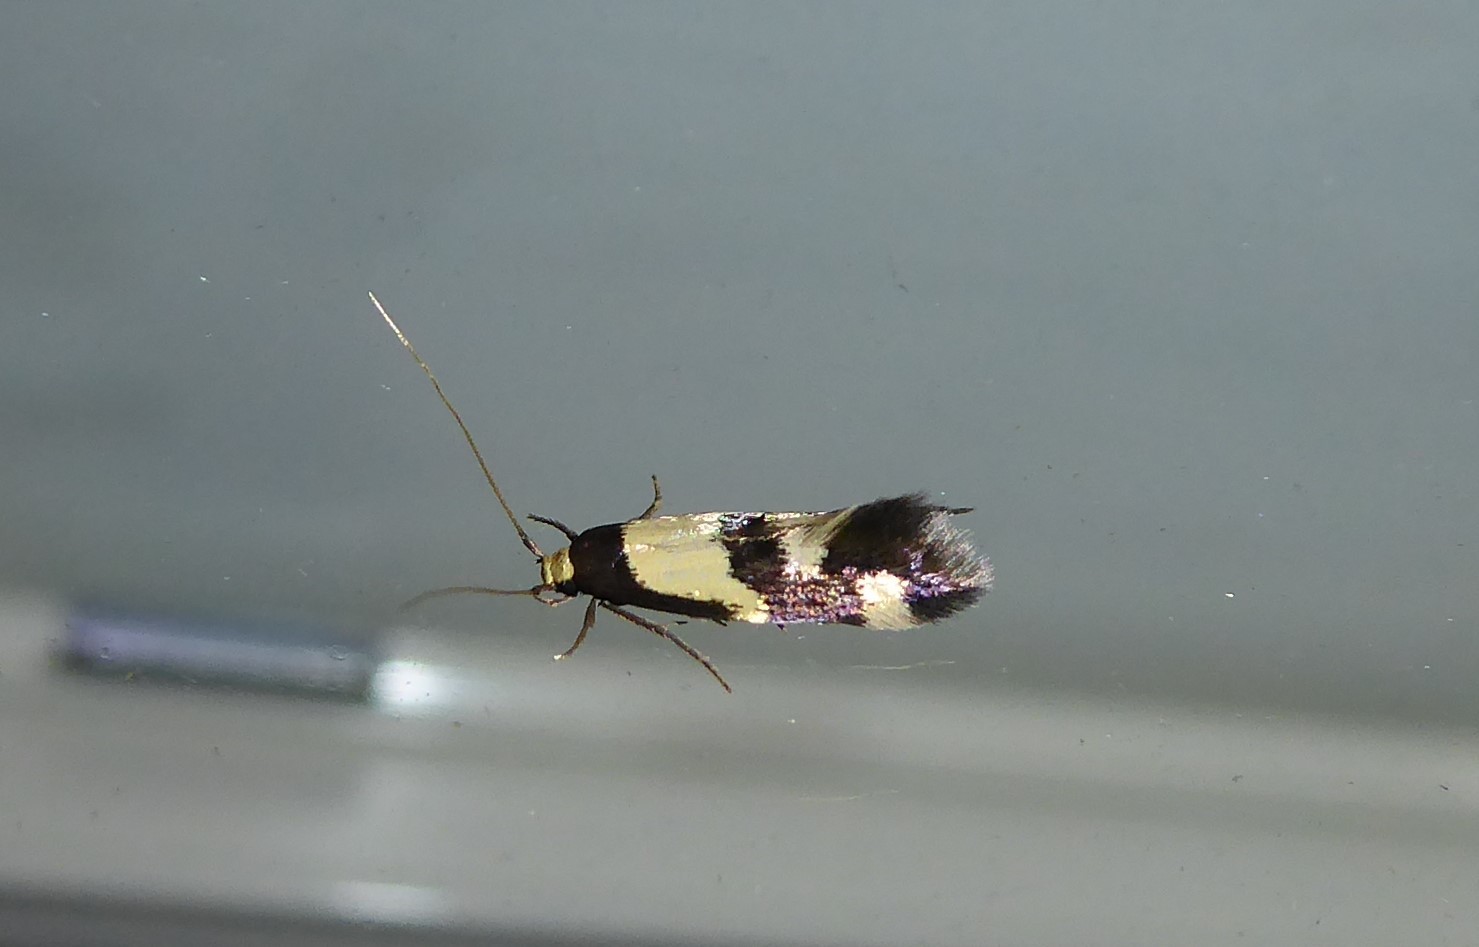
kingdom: Animalia
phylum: Arthropoda
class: Insecta
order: Lepidoptera
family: Tineidae
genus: Opogona
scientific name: Opogona comptella
